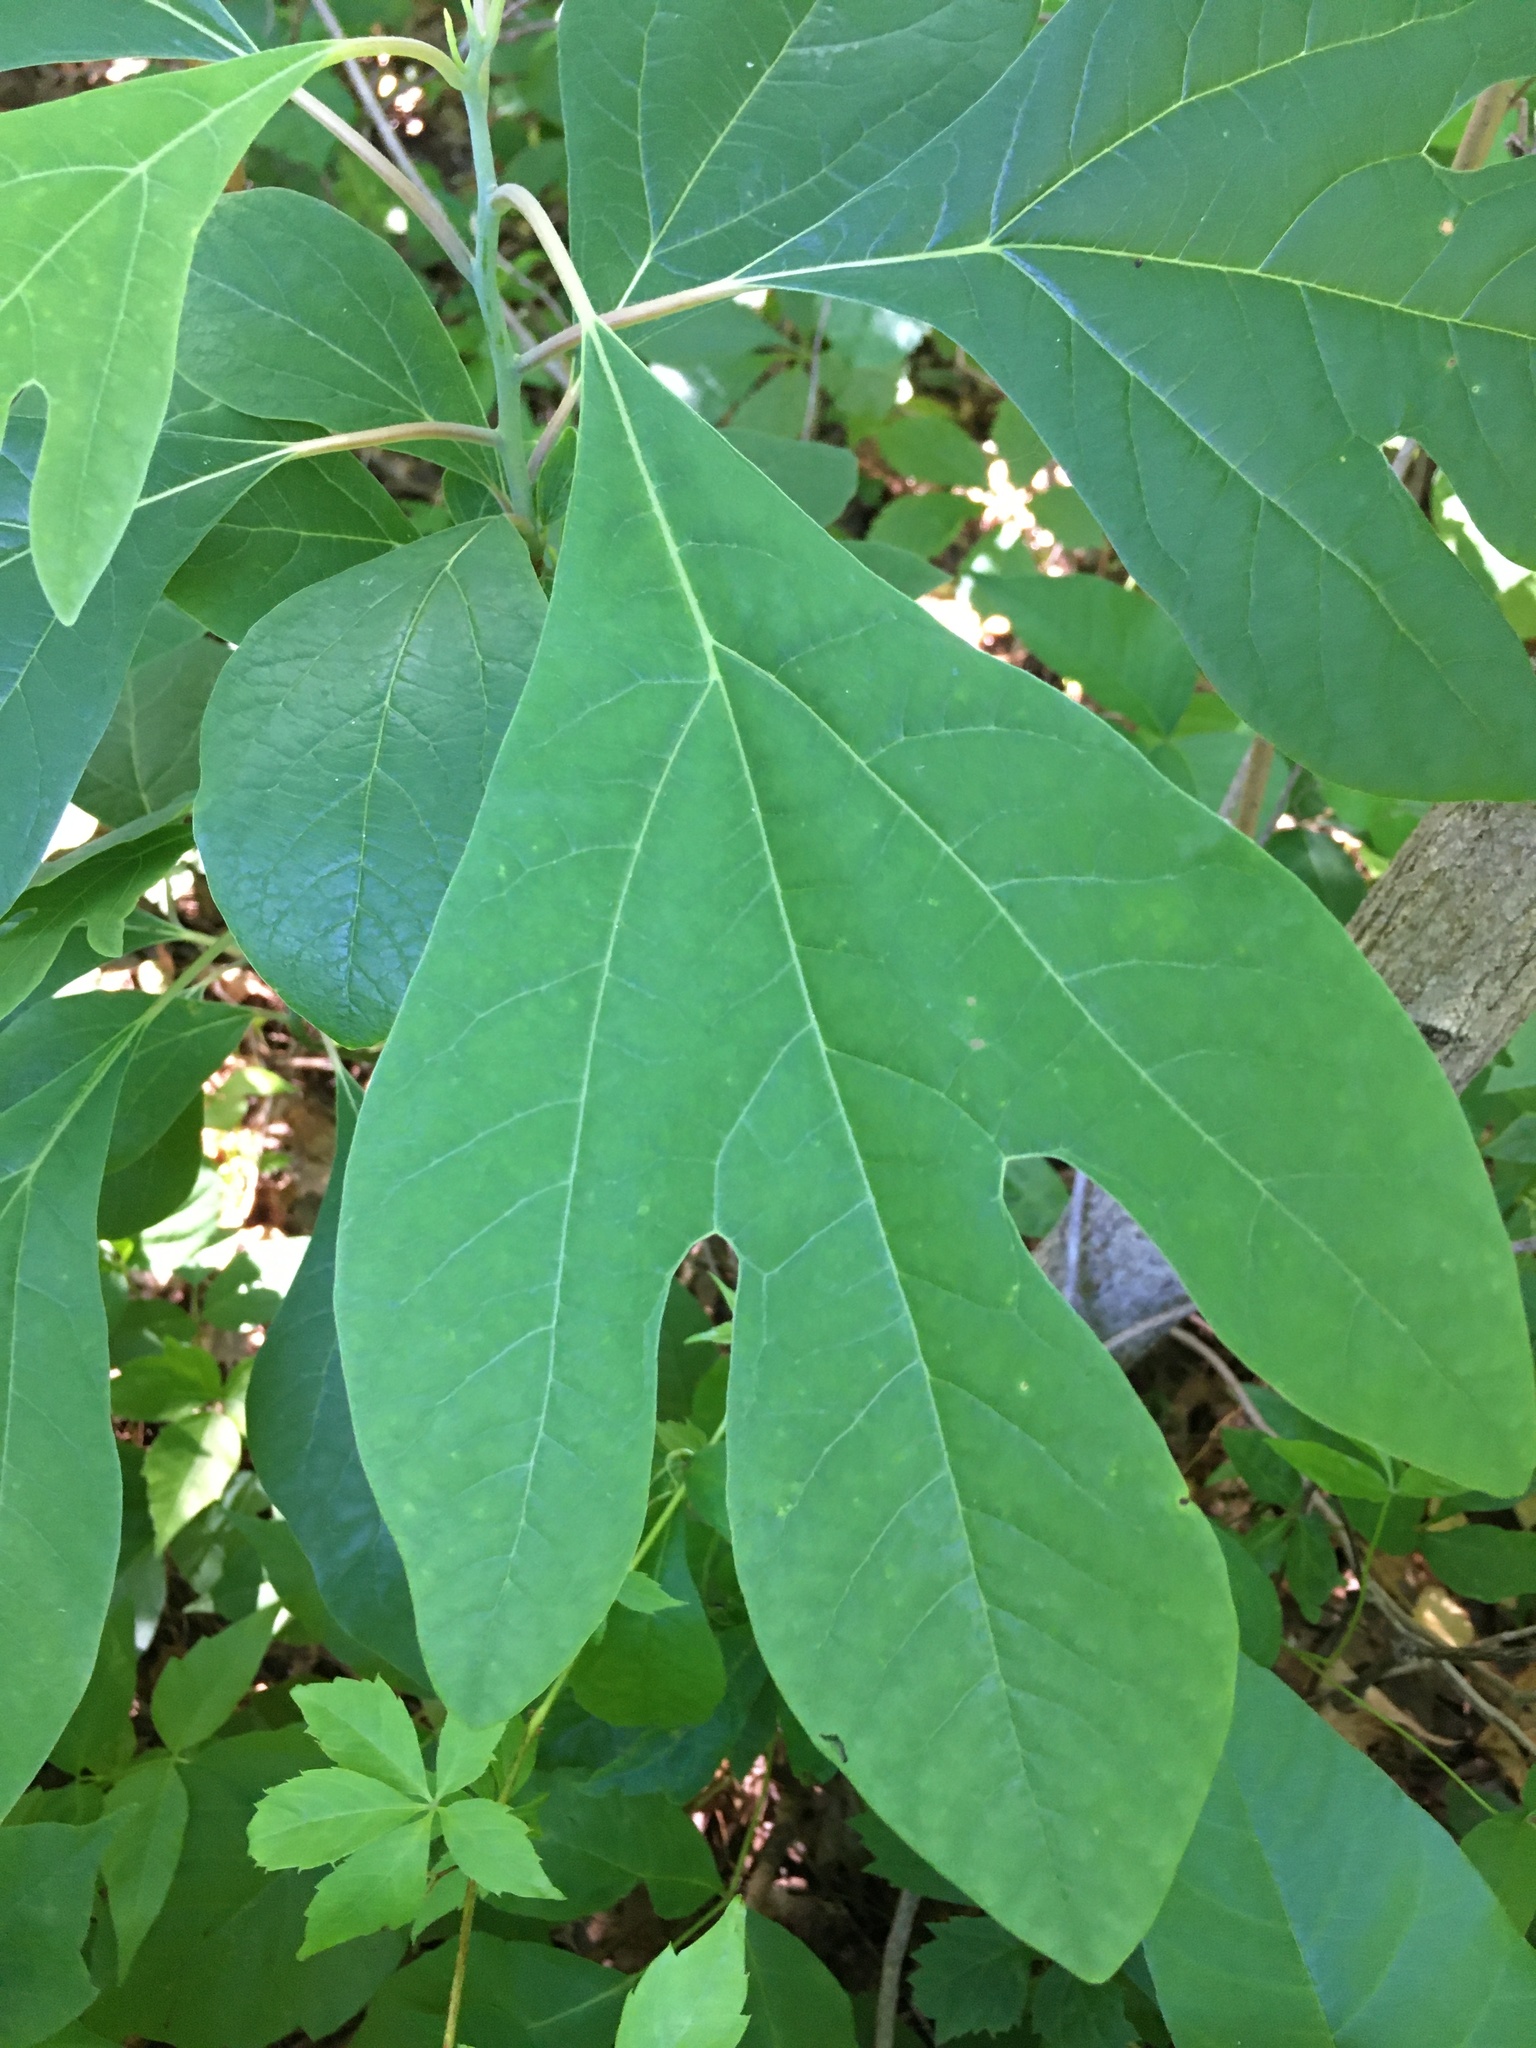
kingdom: Plantae
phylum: Tracheophyta
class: Magnoliopsida
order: Laurales
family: Lauraceae
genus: Sassafras
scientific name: Sassafras albidum
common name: Sassafras
